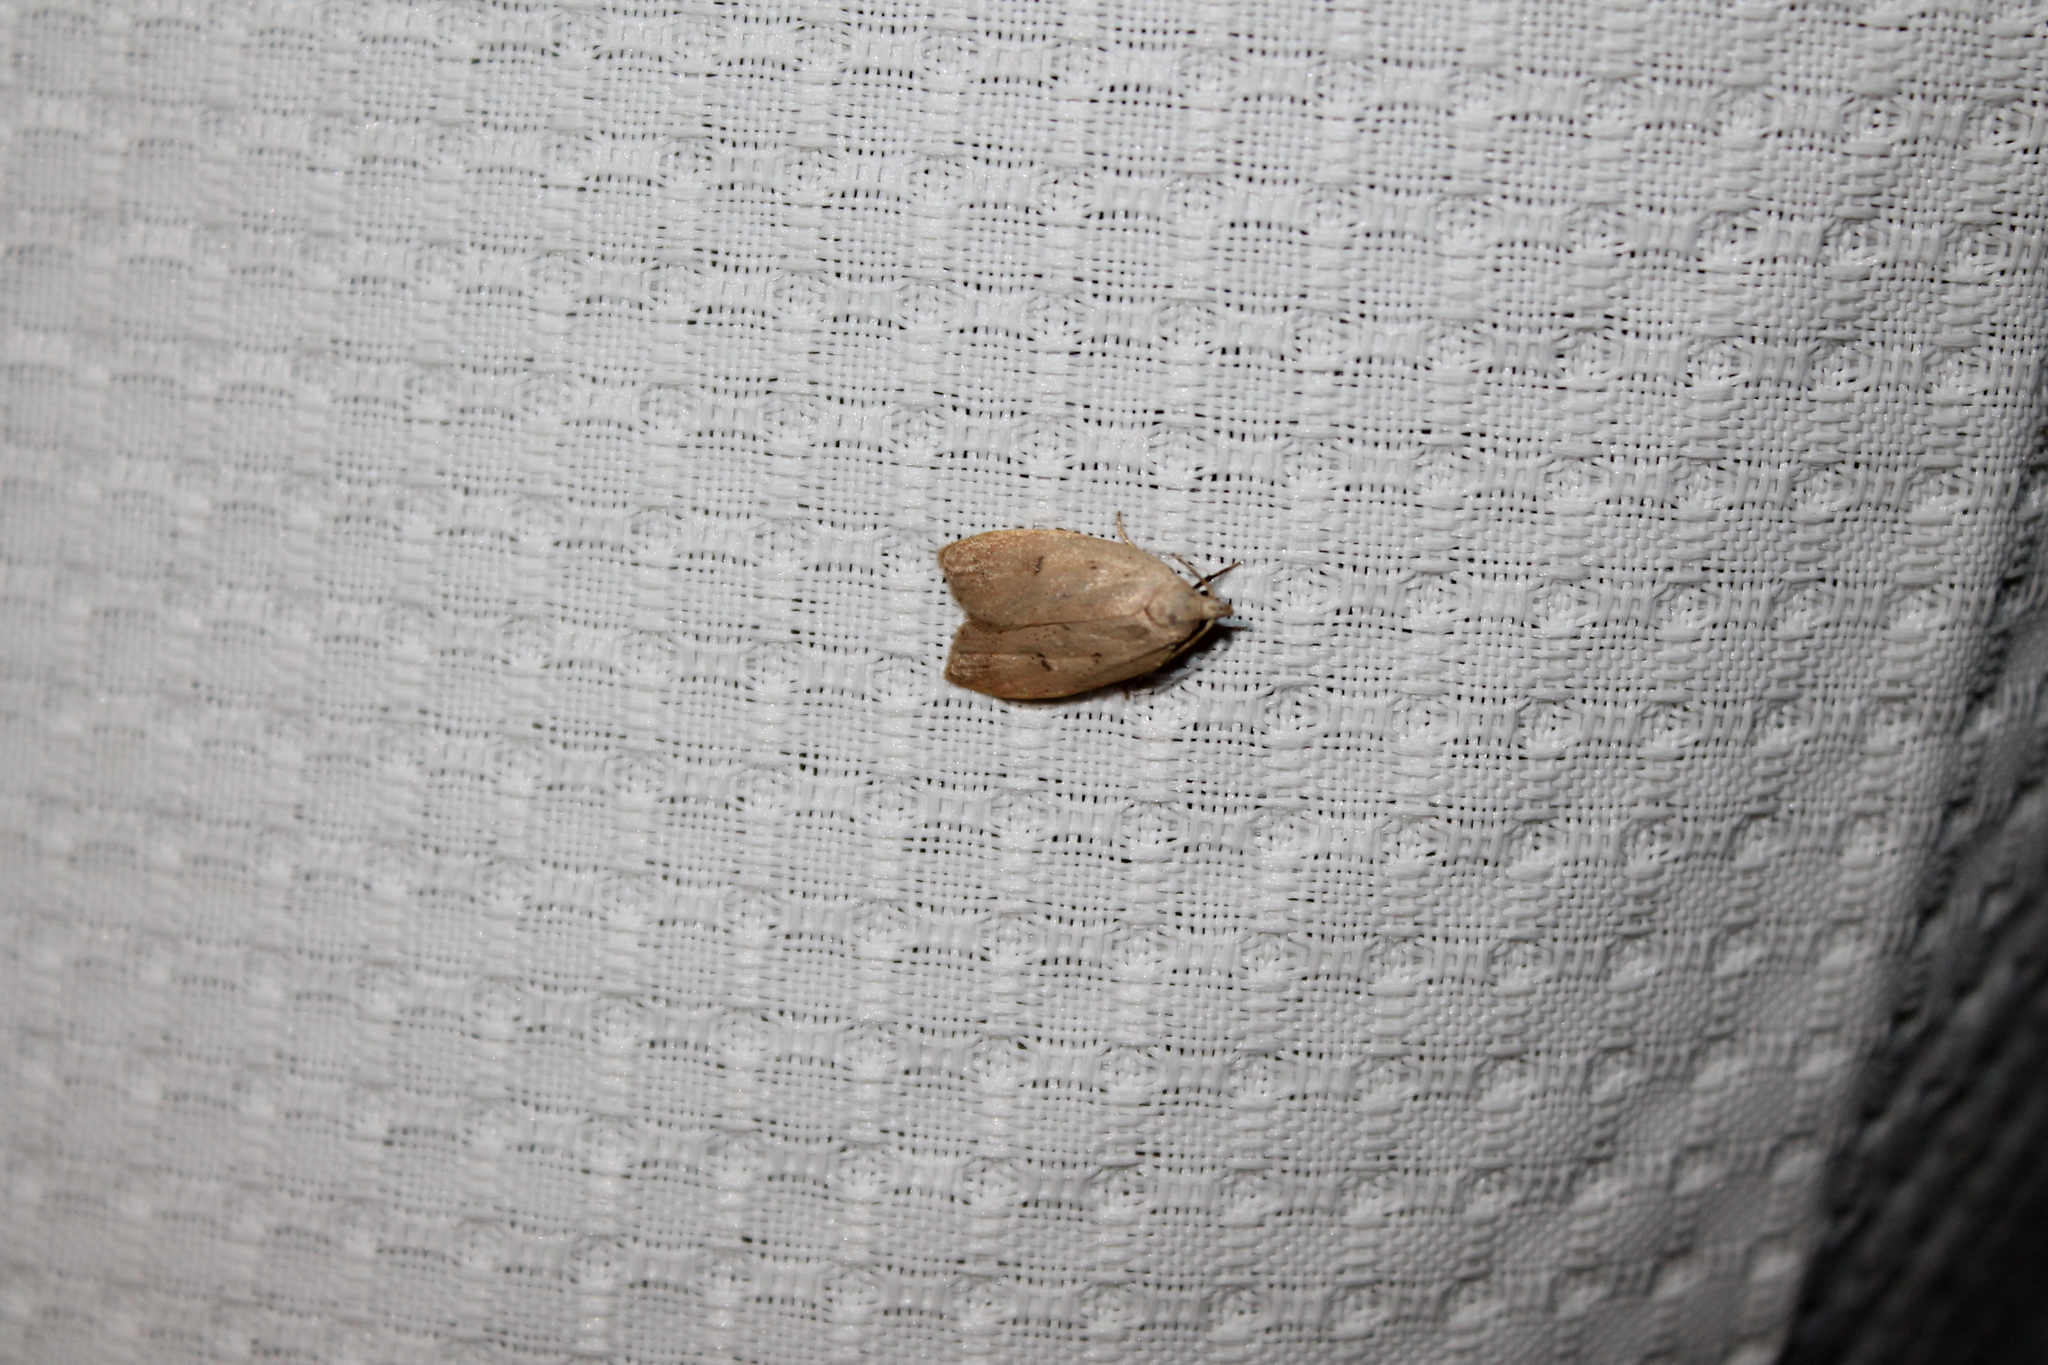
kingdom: Animalia
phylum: Arthropoda
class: Insecta
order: Lepidoptera
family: Peleopodidae
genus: Machimia
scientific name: Machimia tentoriferella
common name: Gold-striped leaftier moth
